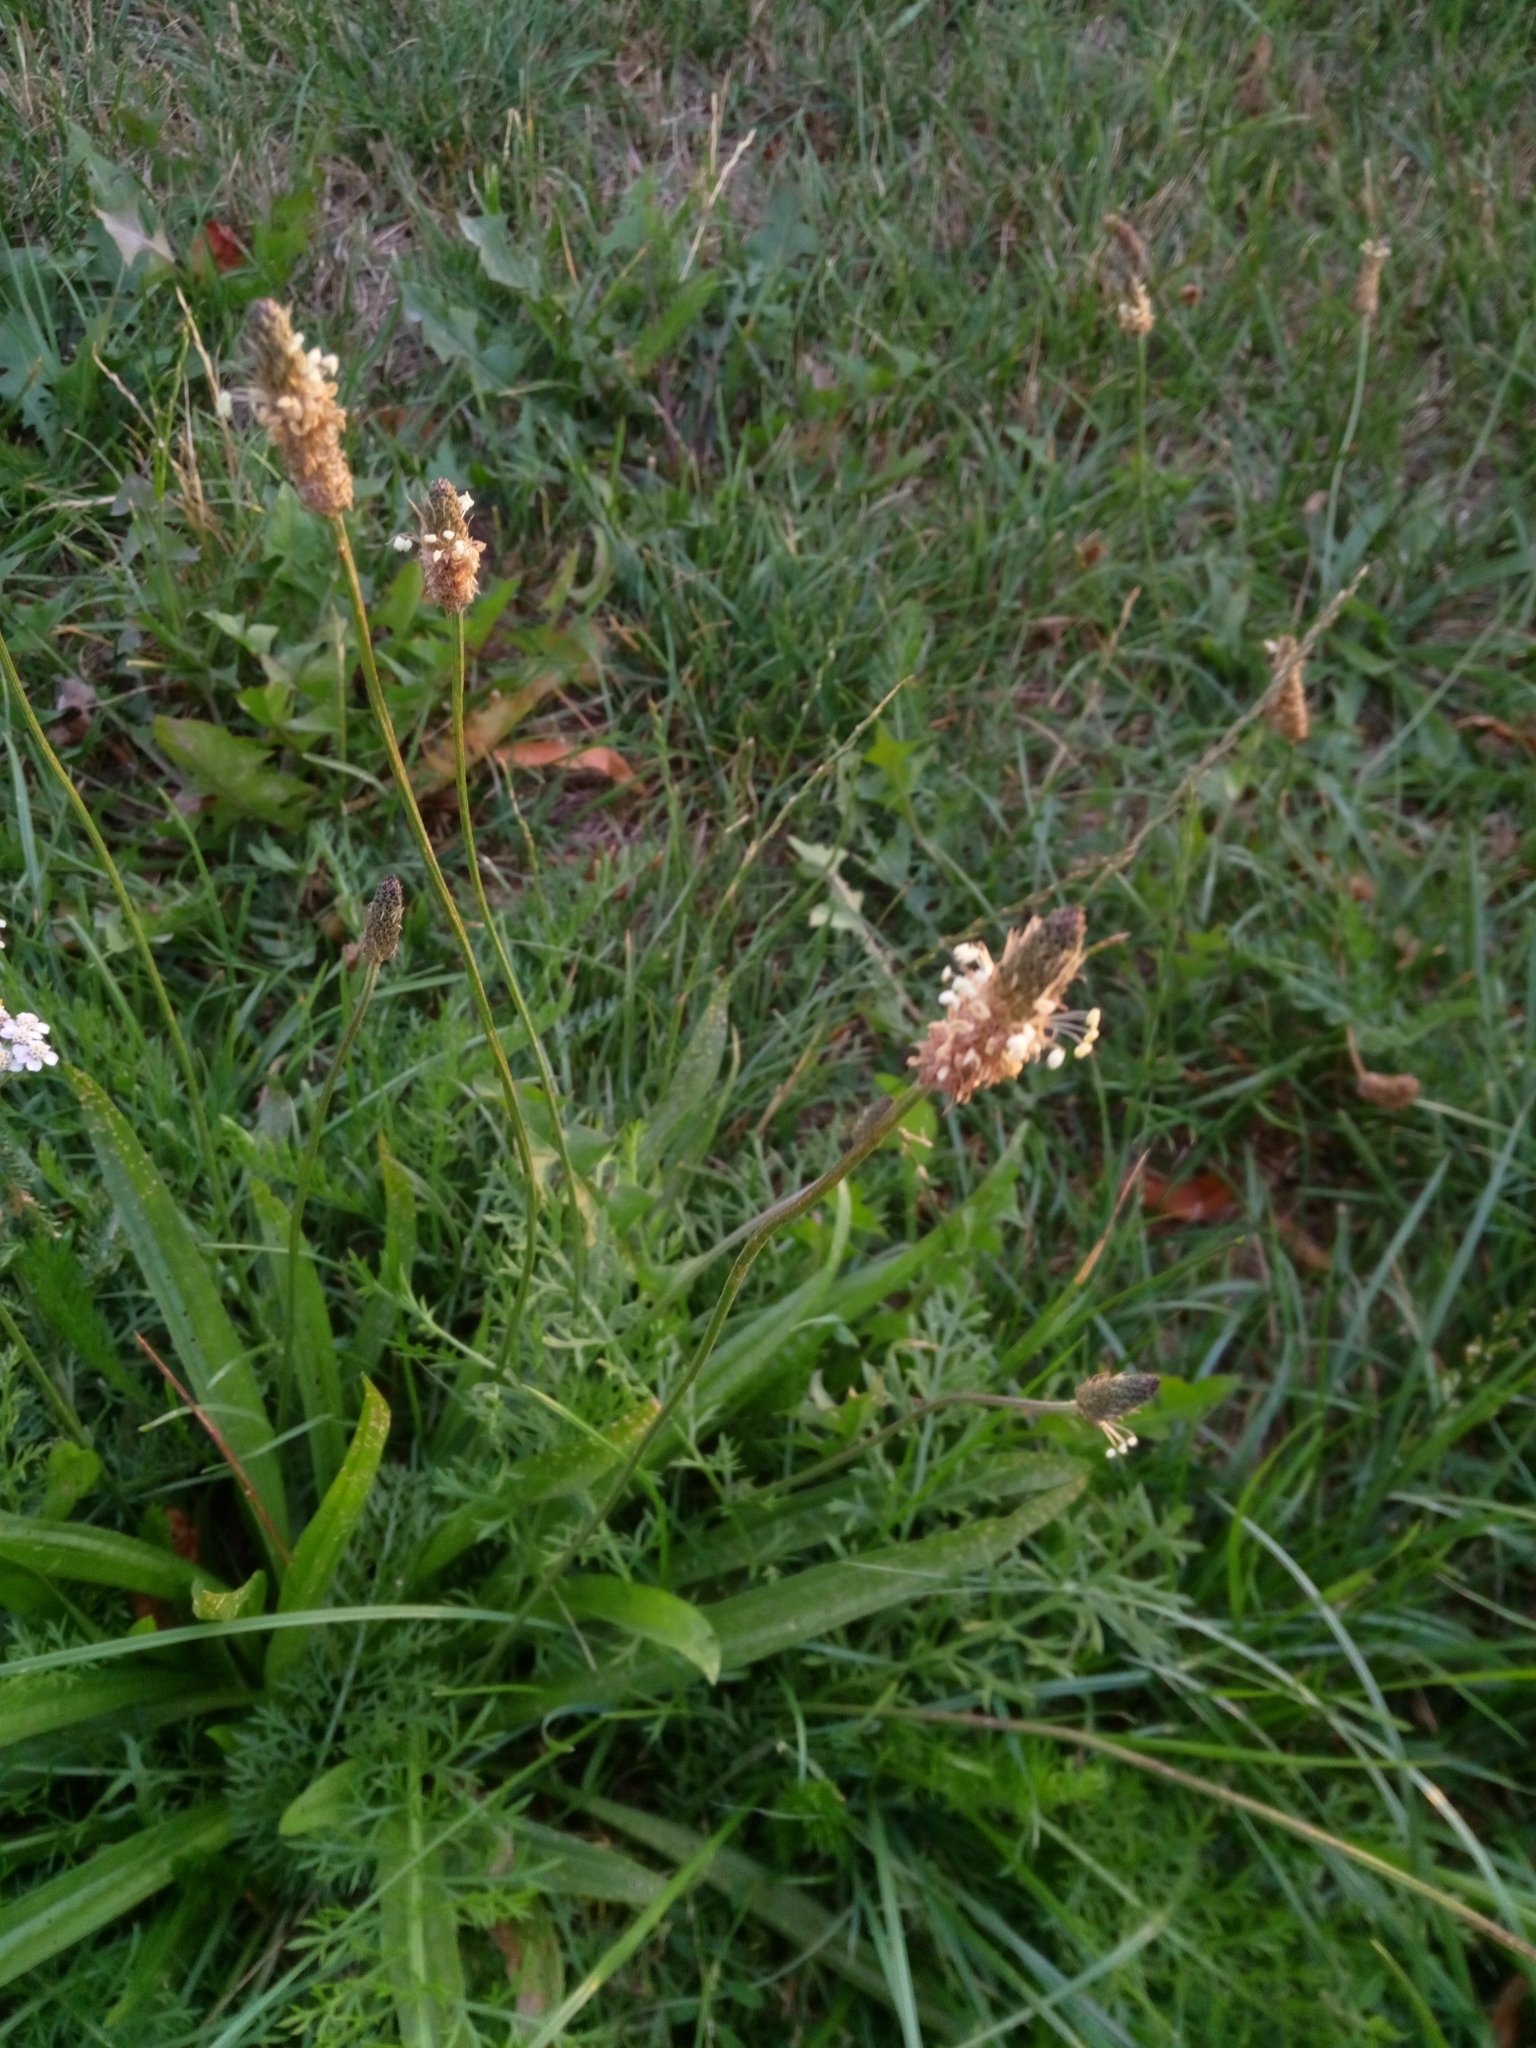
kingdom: Plantae
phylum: Tracheophyta
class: Magnoliopsida
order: Lamiales
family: Plantaginaceae
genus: Plantago
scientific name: Plantago lanceolata
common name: Ribwort plantain
